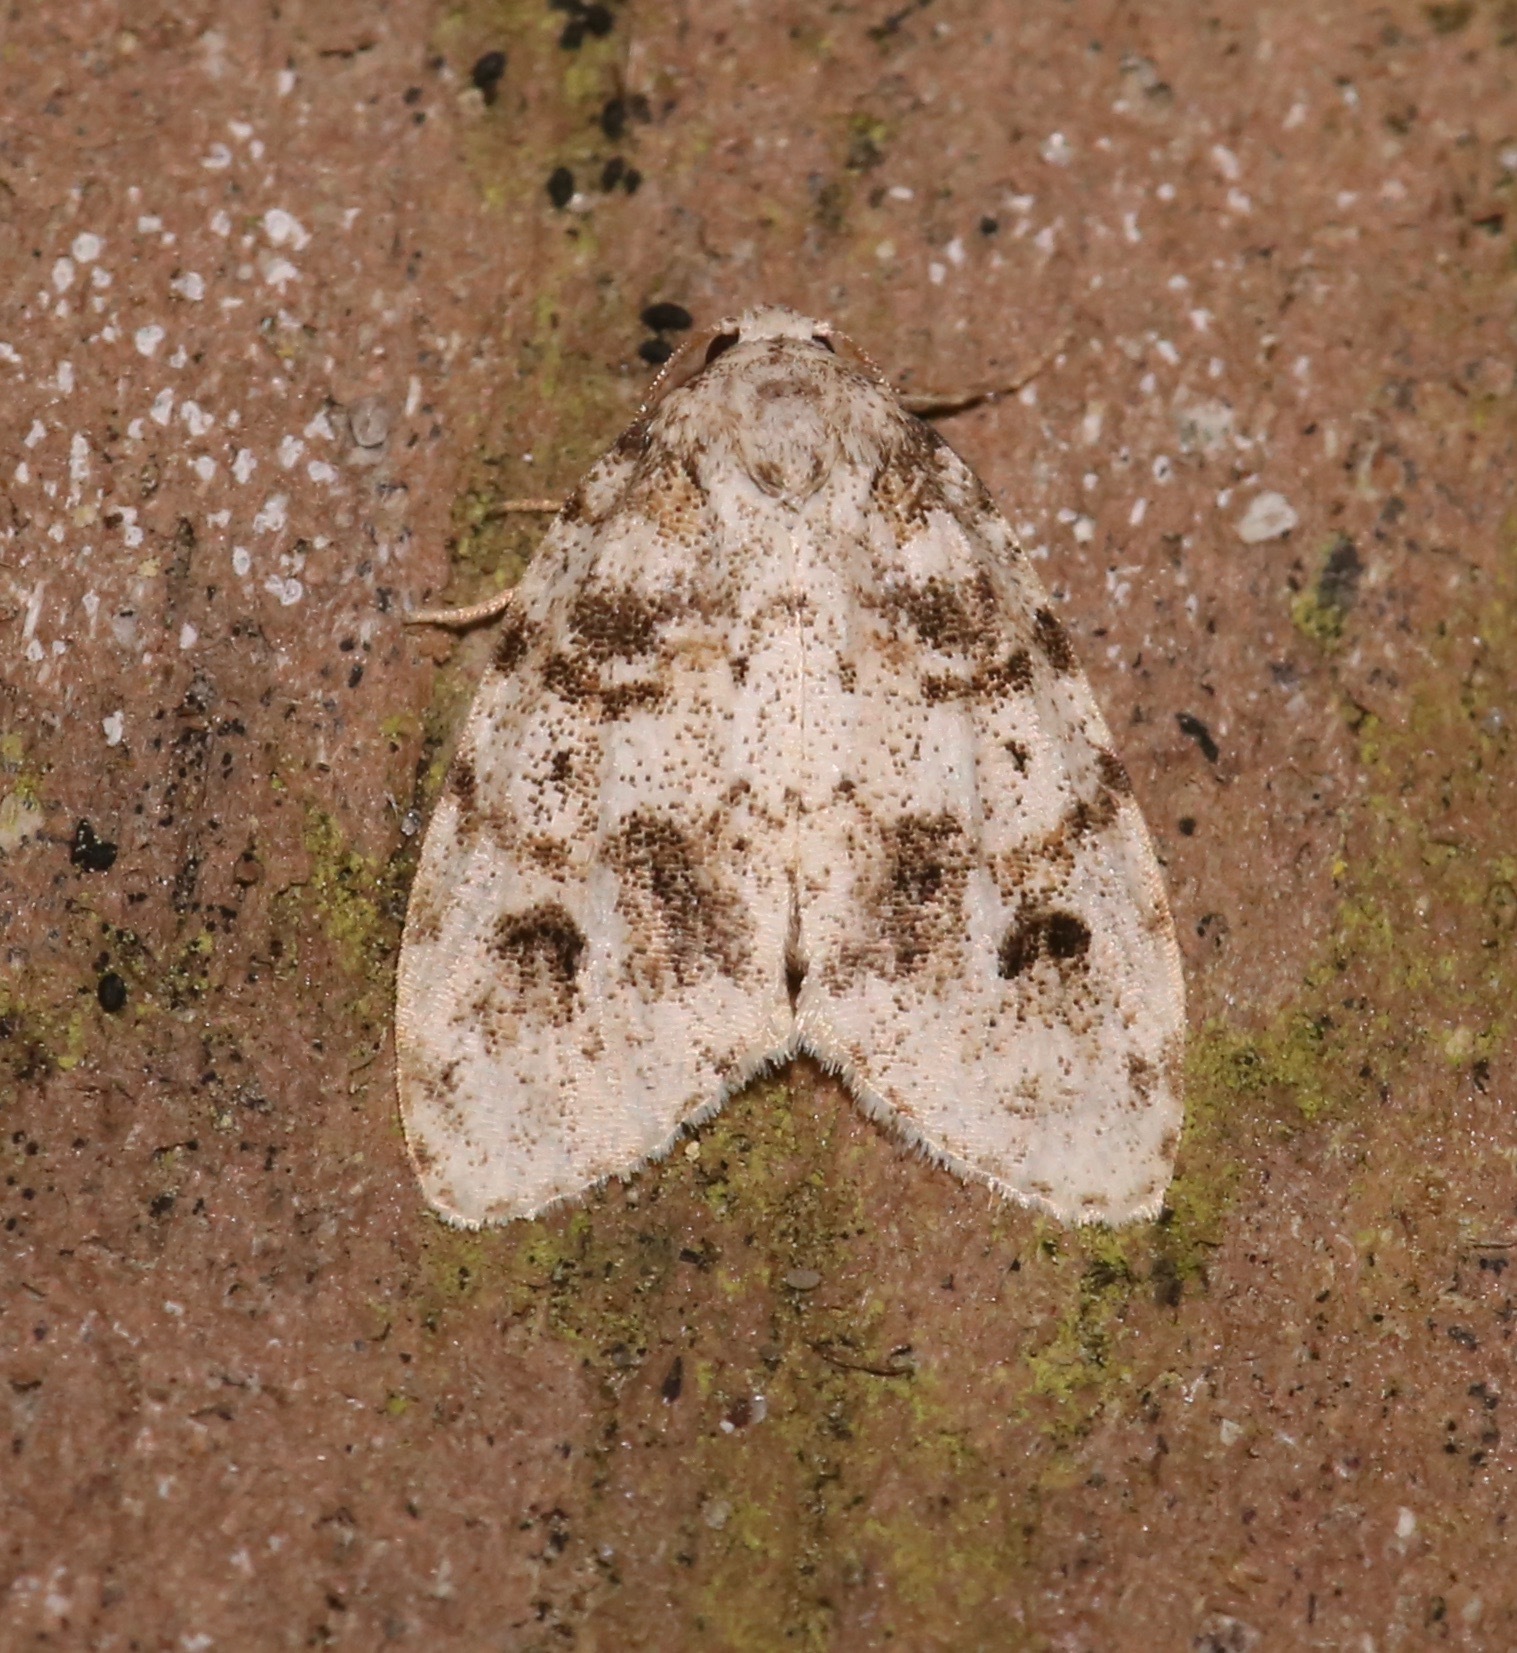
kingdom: Animalia
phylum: Arthropoda
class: Insecta
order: Lepidoptera
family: Erebidae
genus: Clemensia
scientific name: Clemensia ochreata
